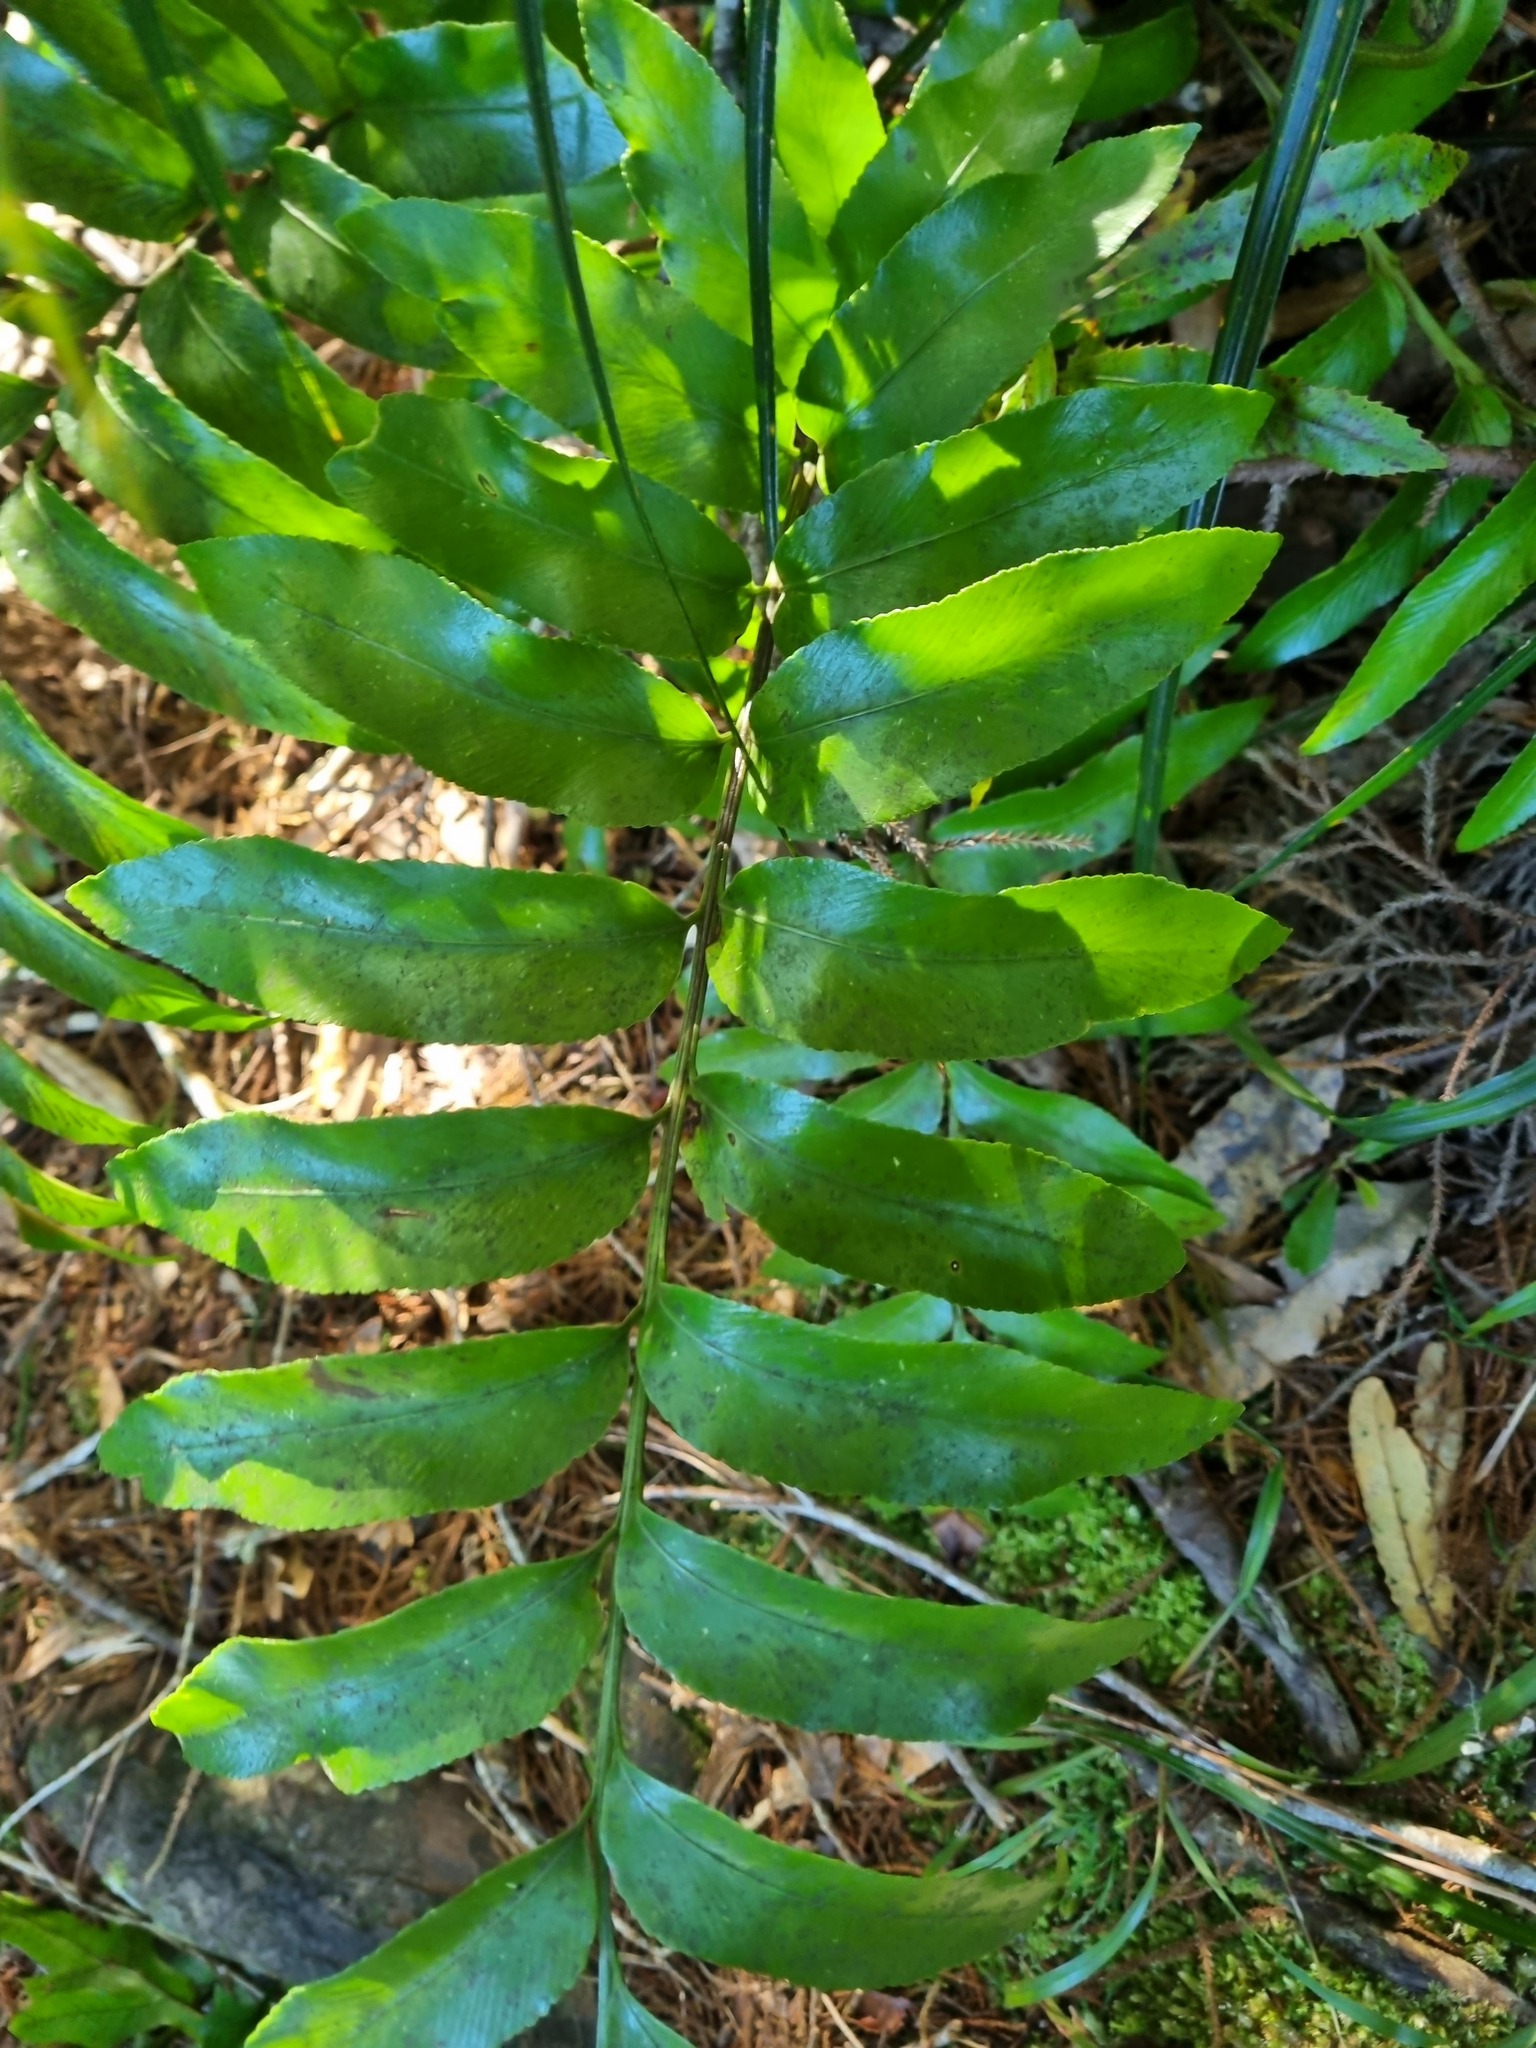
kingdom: Plantae
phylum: Tracheophyta
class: Polypodiopsida
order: Polypodiales
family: Aspleniaceae
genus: Asplenium
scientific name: Asplenium oblongifolium
